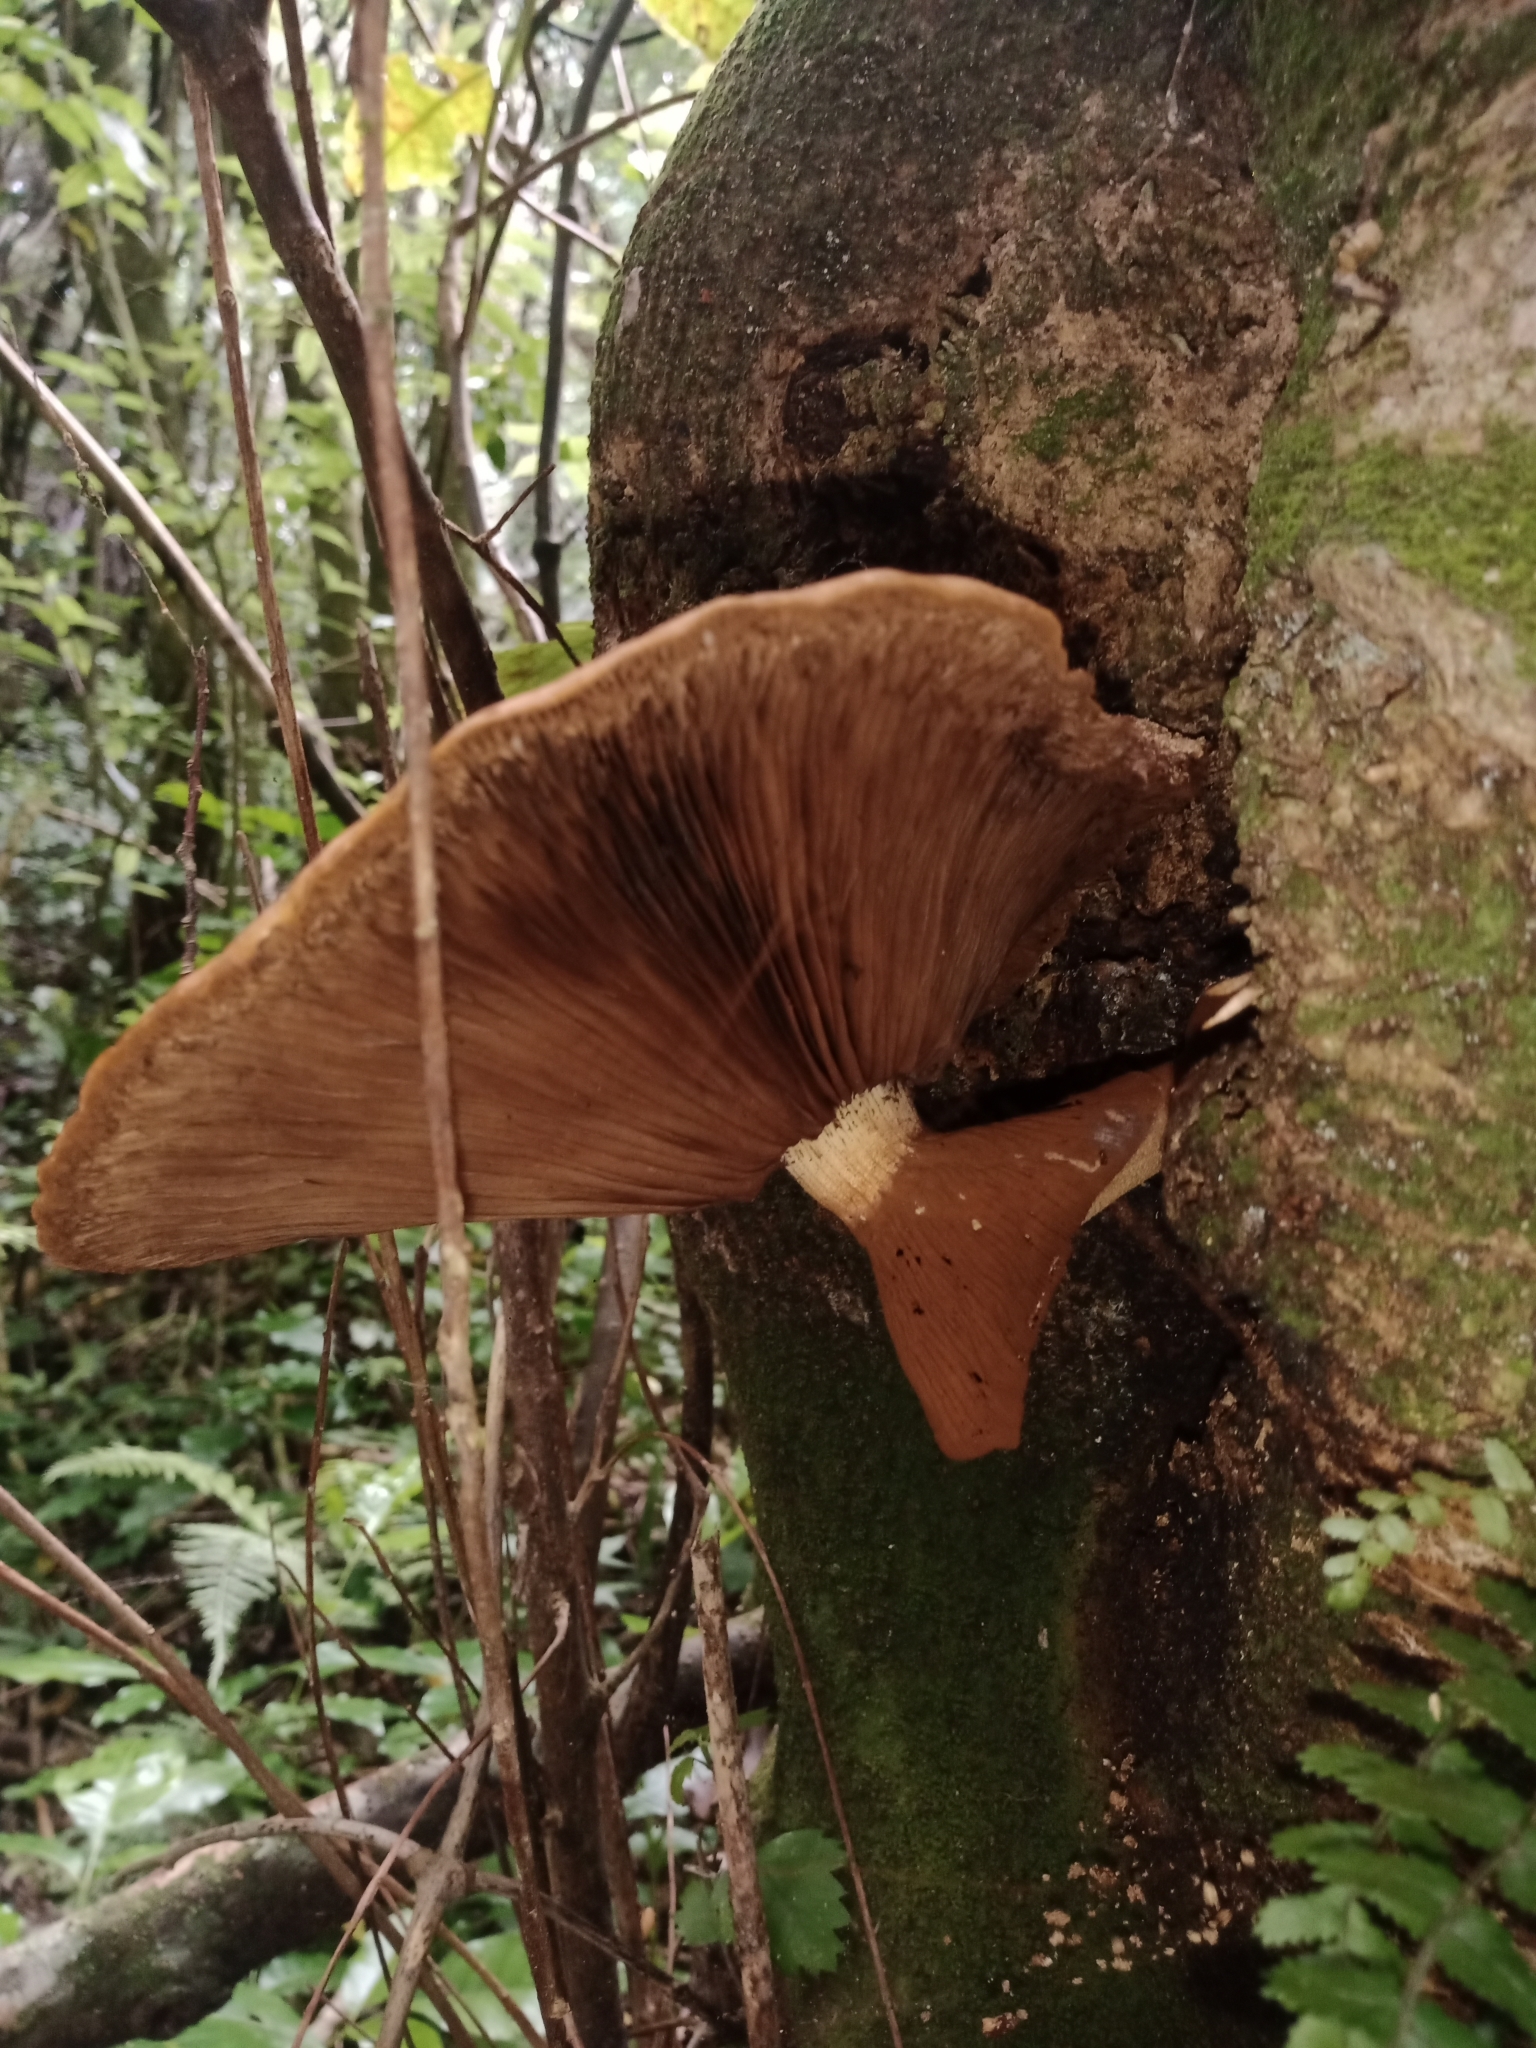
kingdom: Fungi
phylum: Basidiomycota
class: Agaricomycetes
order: Agaricales
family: Tubariaceae
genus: Cyclocybe
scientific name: Cyclocybe parasitica
